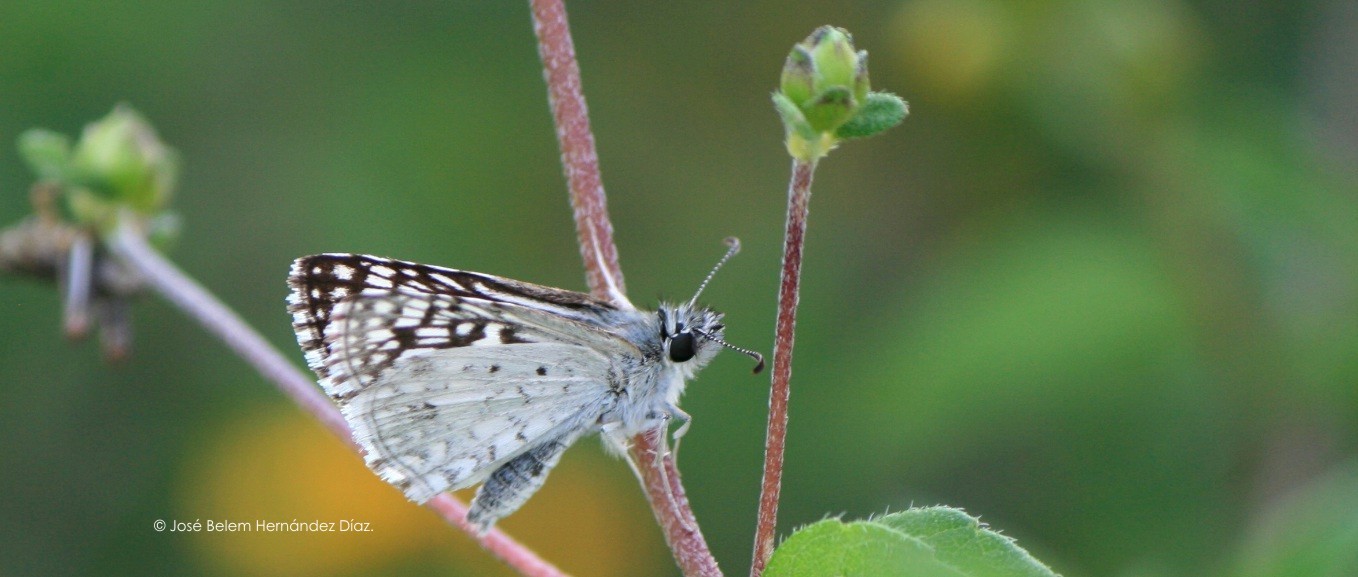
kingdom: Animalia
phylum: Arthropoda
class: Insecta
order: Lepidoptera
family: Hesperiidae
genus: Burnsius
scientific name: Burnsius philetas
